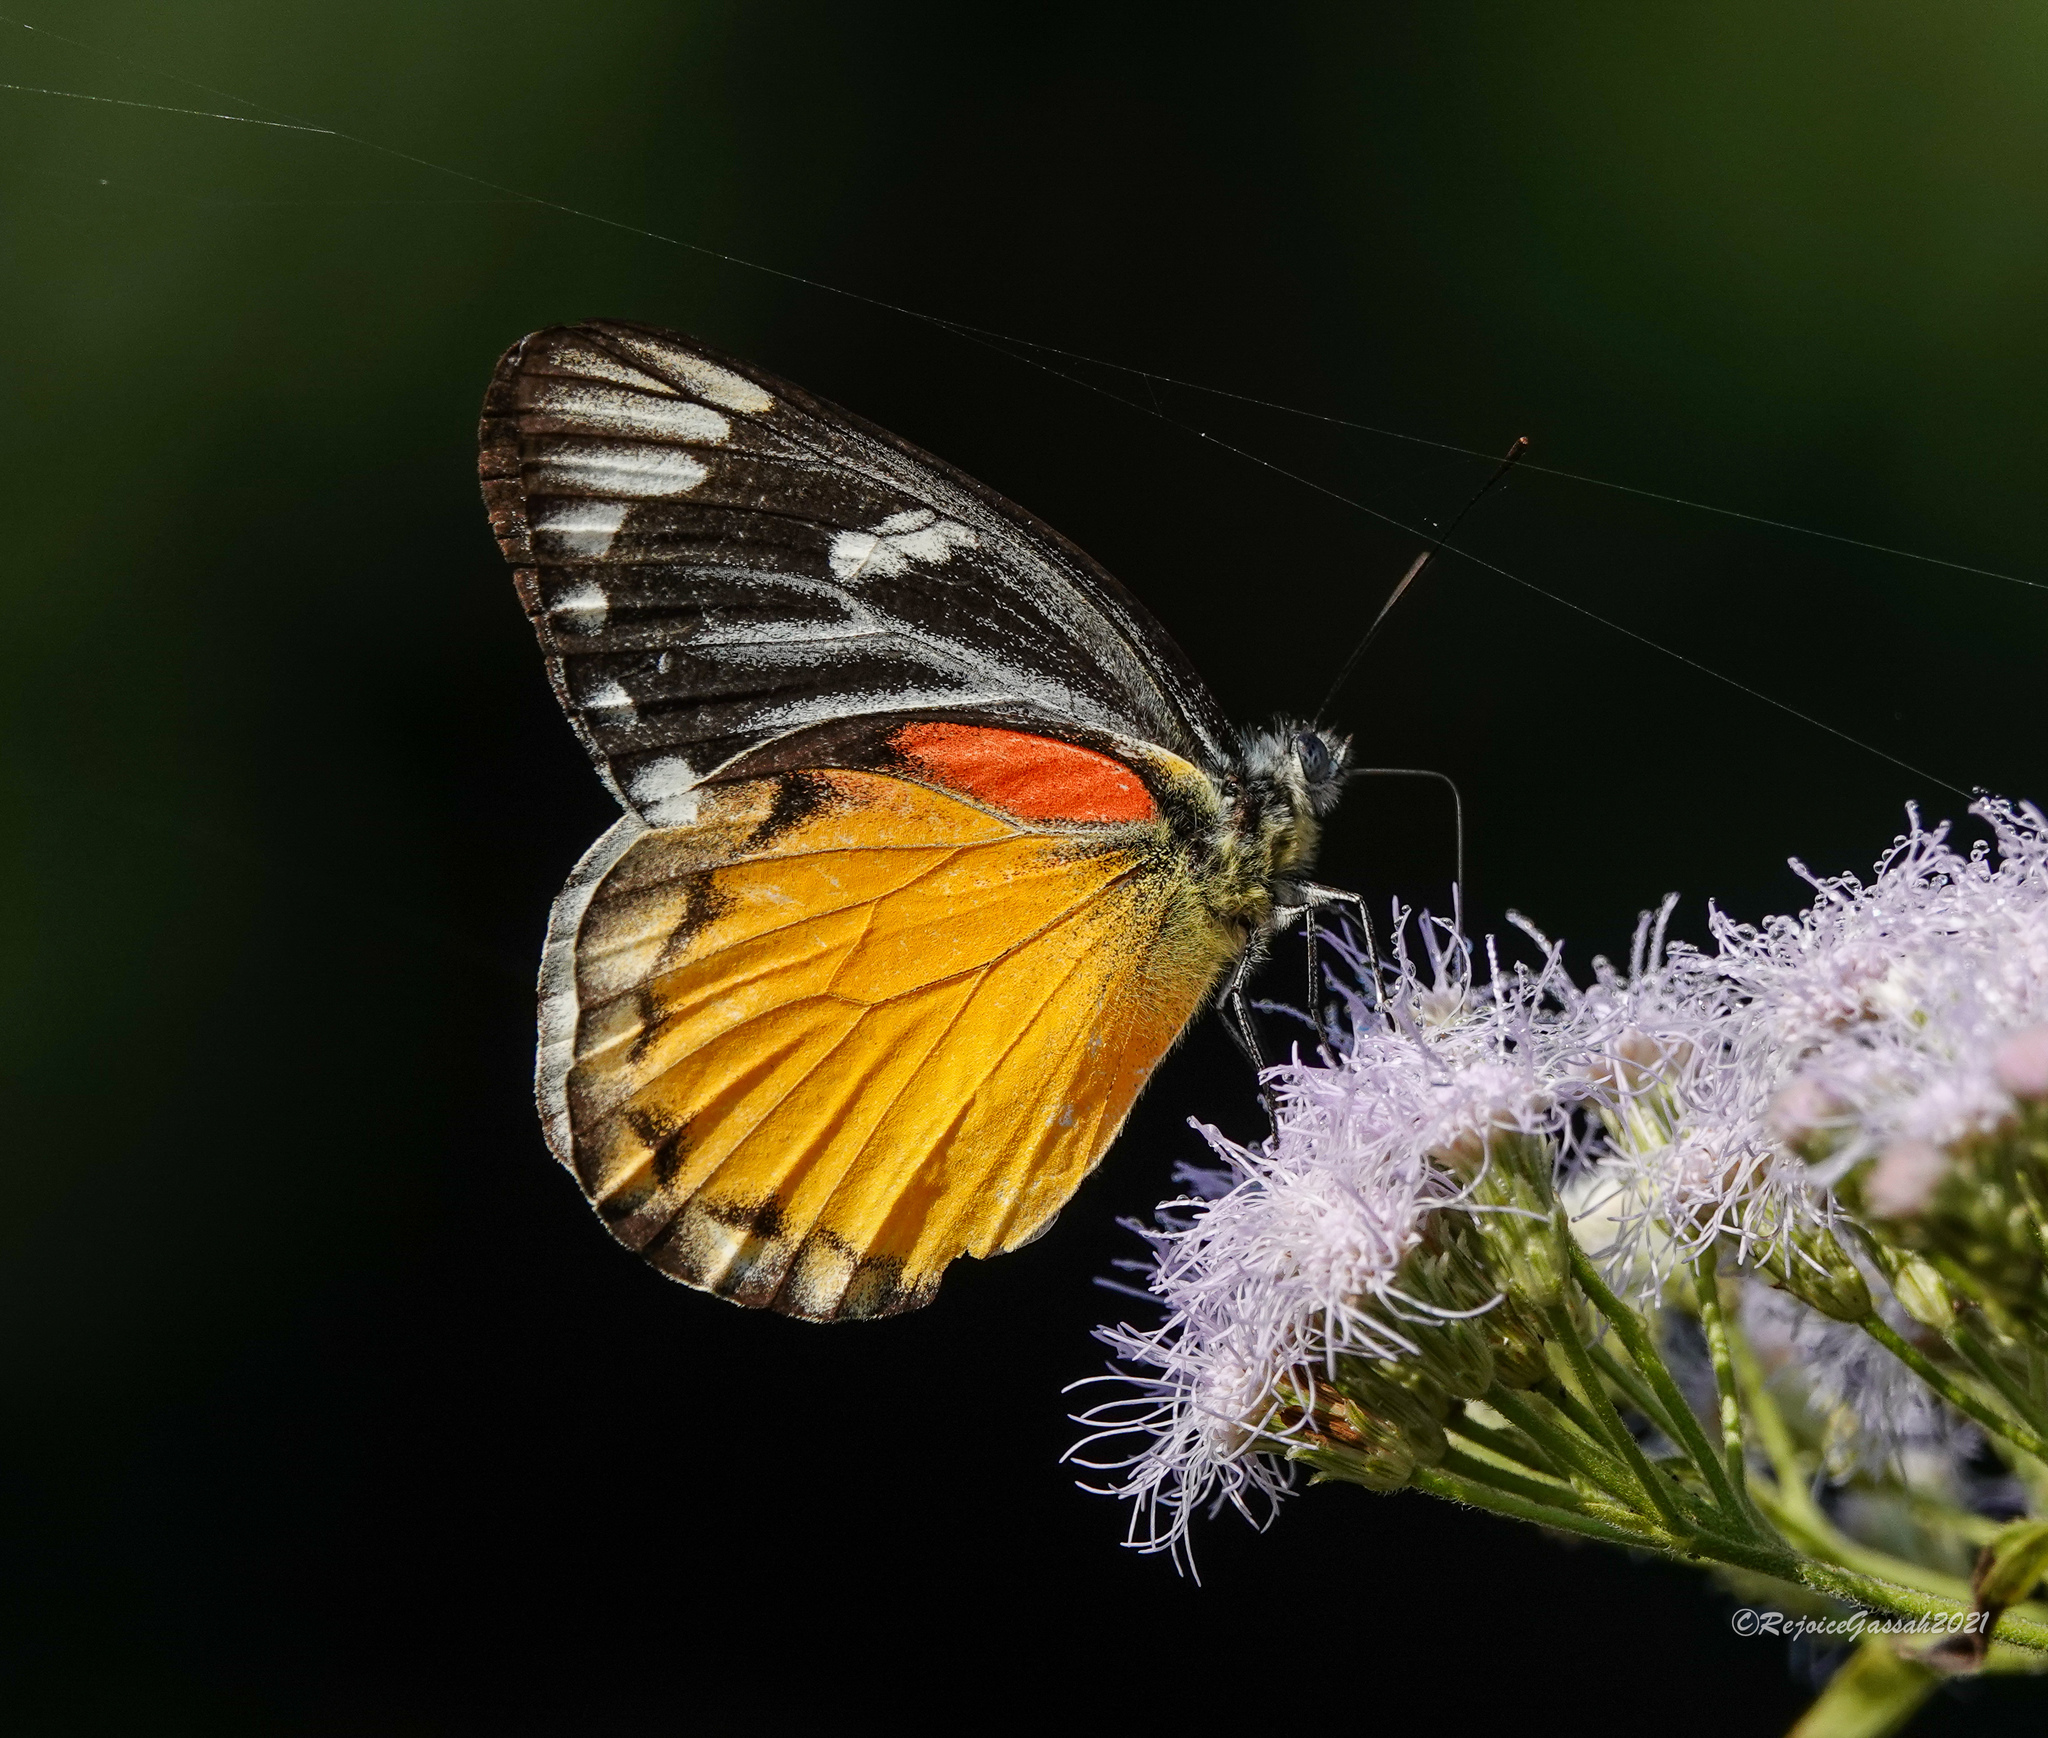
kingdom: Animalia
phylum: Arthropoda
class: Insecta
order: Lepidoptera
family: Pieridae
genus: Delias
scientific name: Delias descombesi
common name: Red-spot jezebel
